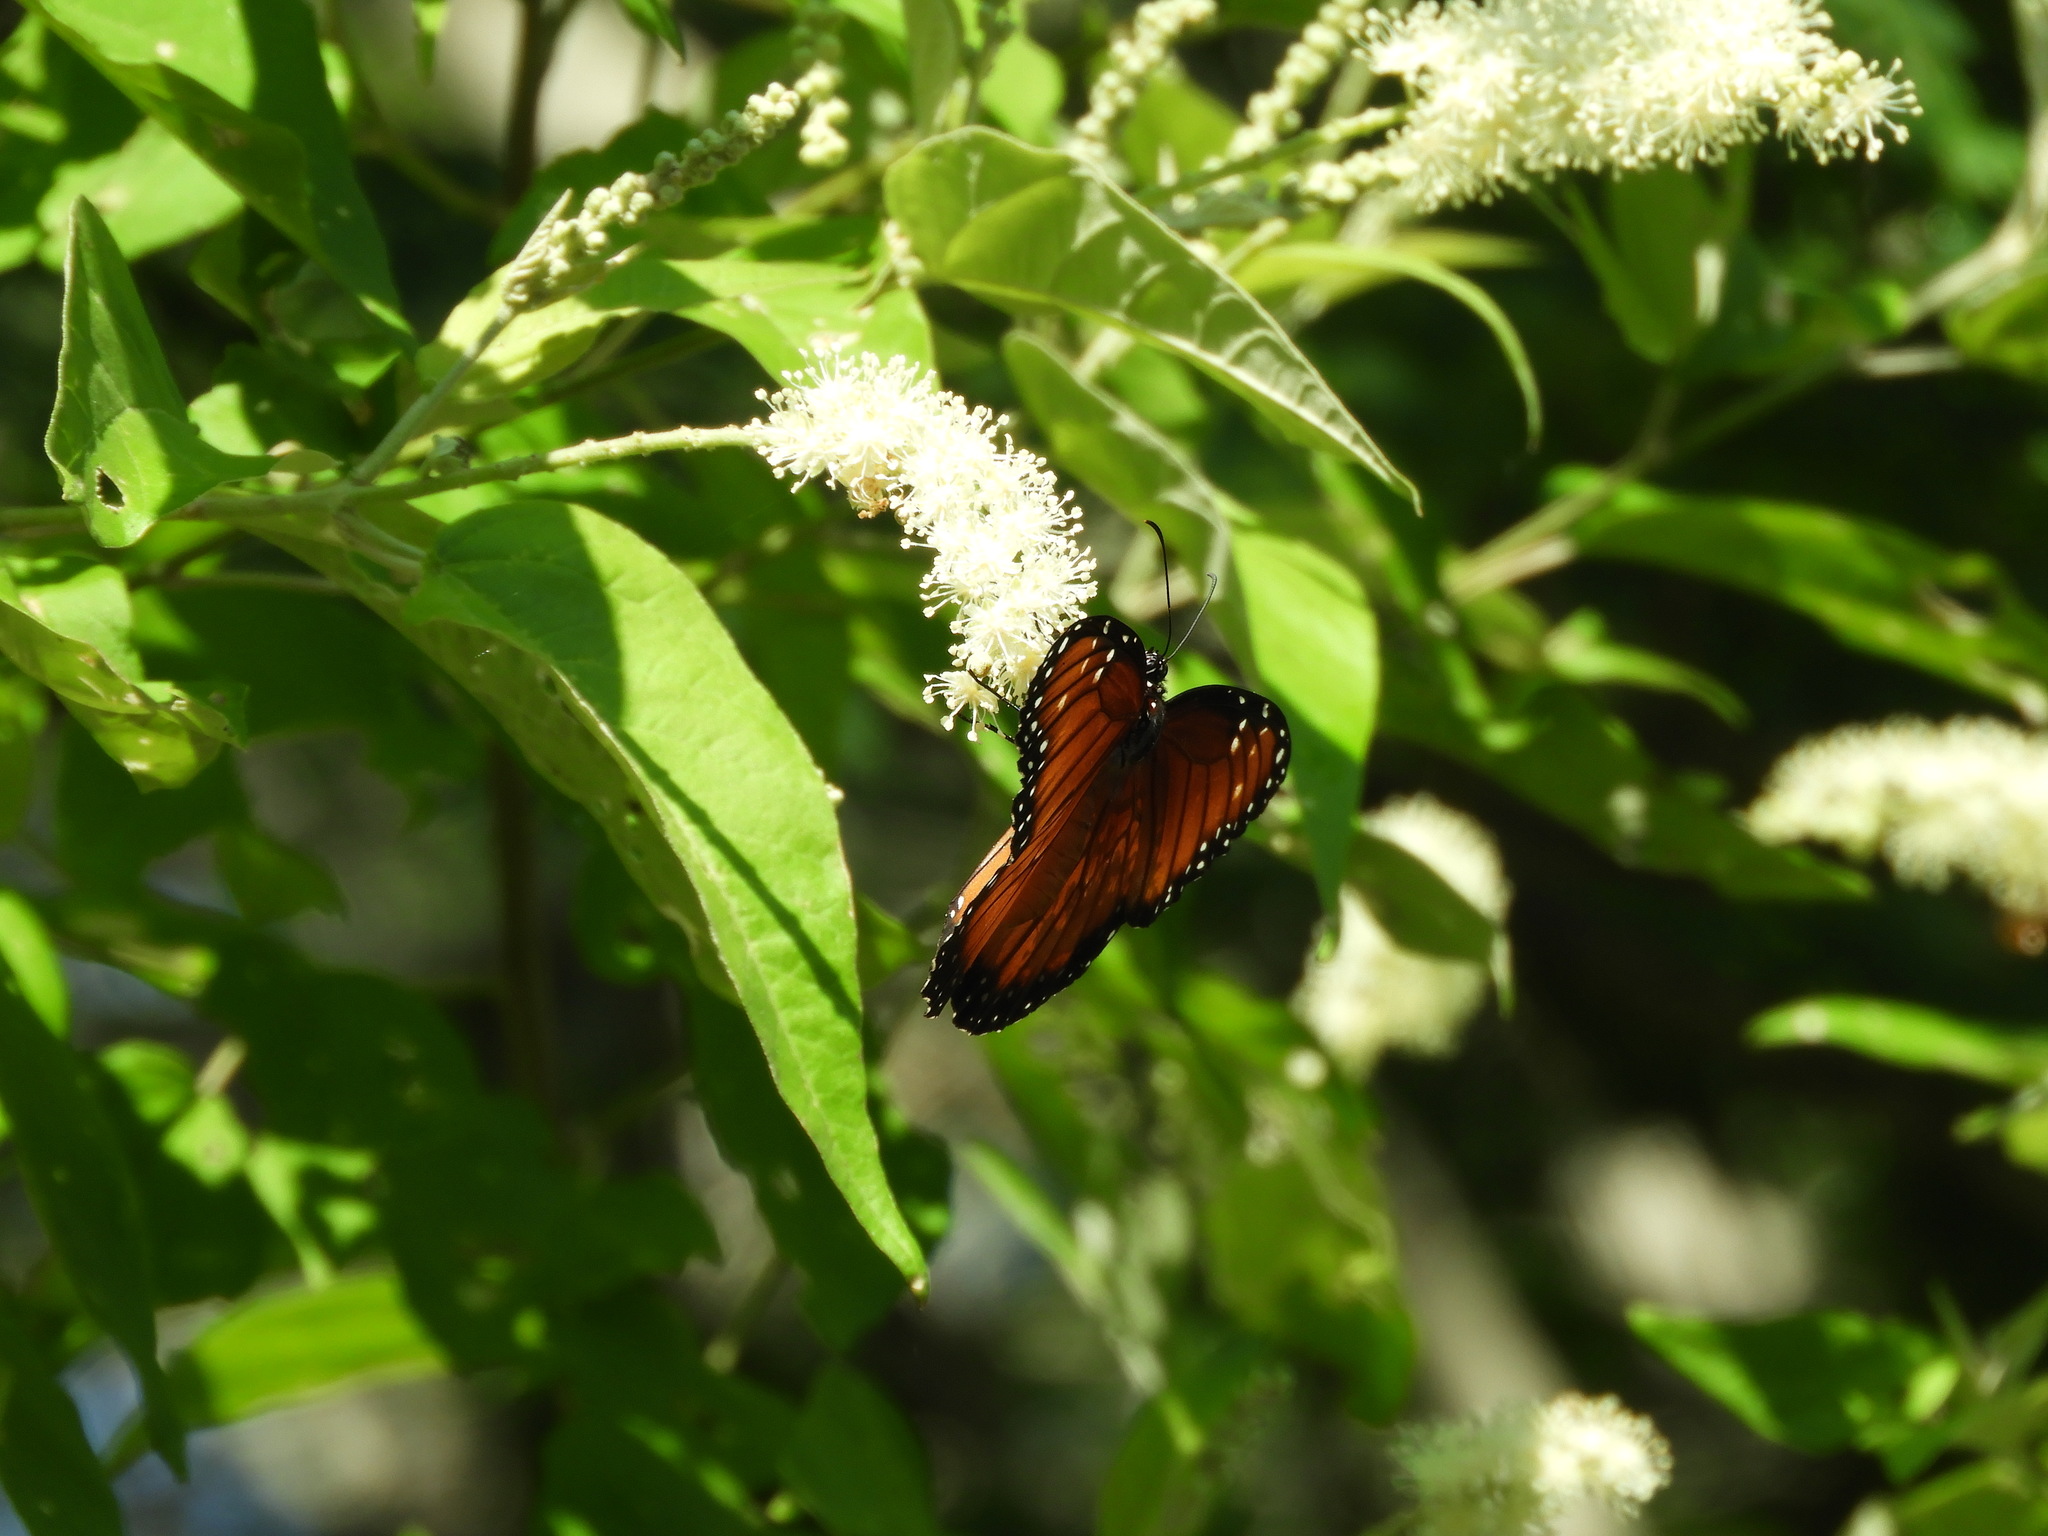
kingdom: Animalia
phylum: Arthropoda
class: Insecta
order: Lepidoptera
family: Nymphalidae
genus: Danaus
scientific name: Danaus eresimus
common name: Soldier
